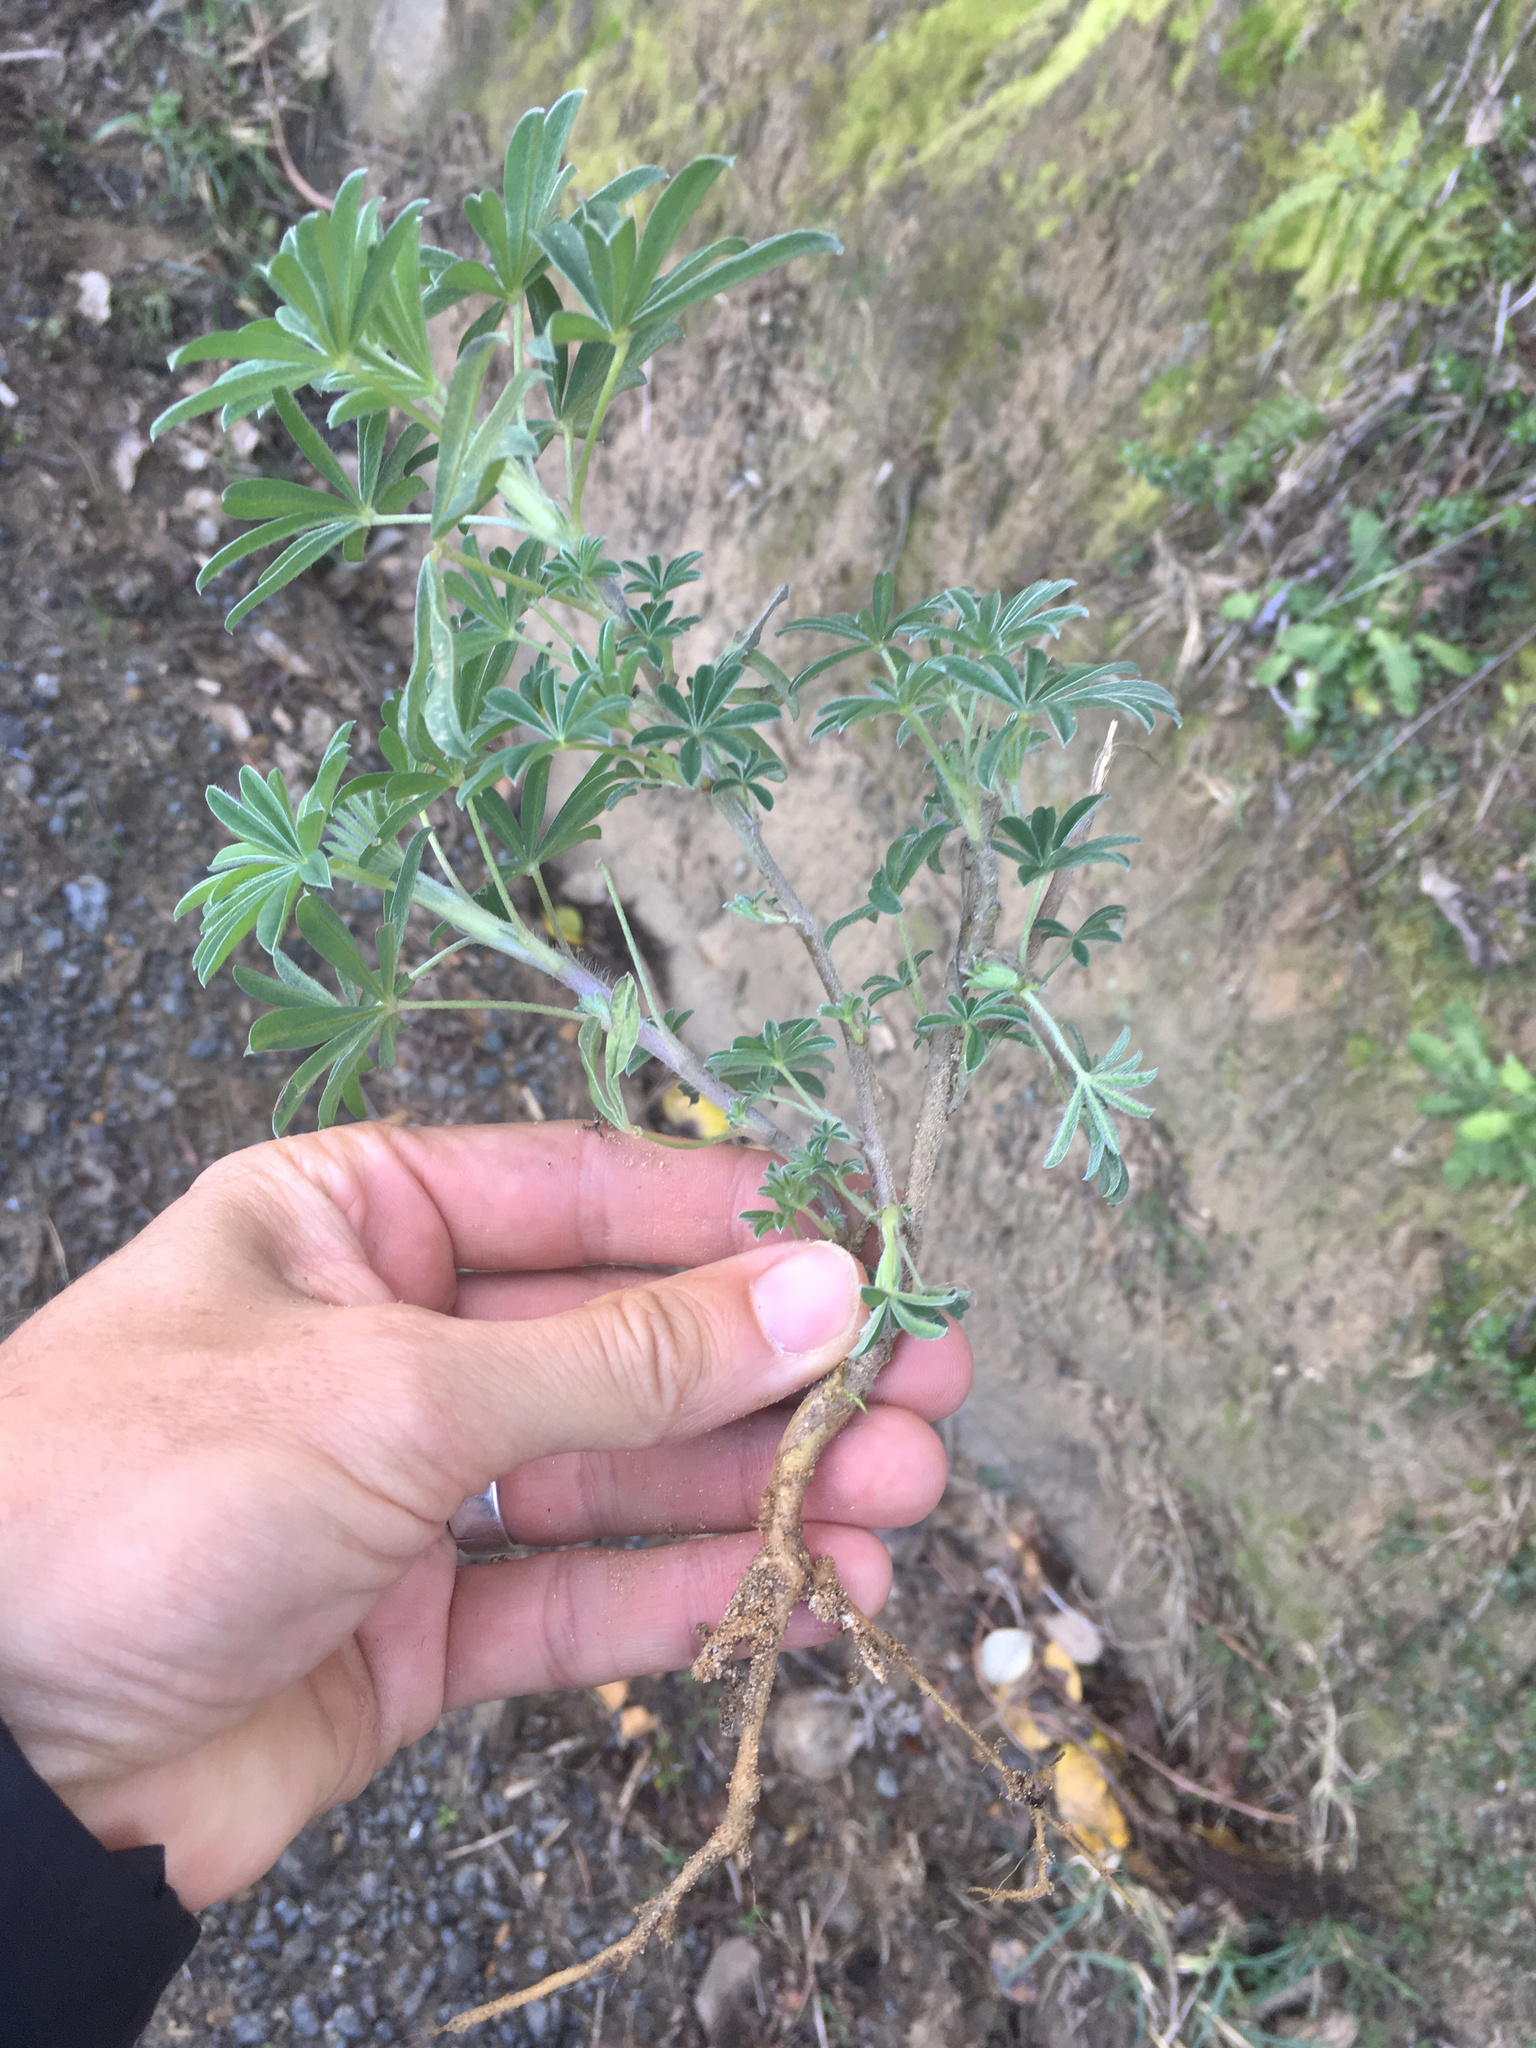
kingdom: Plantae
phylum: Tracheophyta
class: Magnoliopsida
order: Fabales
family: Fabaceae
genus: Lupinus
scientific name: Lupinus arboreus
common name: Yellow bush lupine
